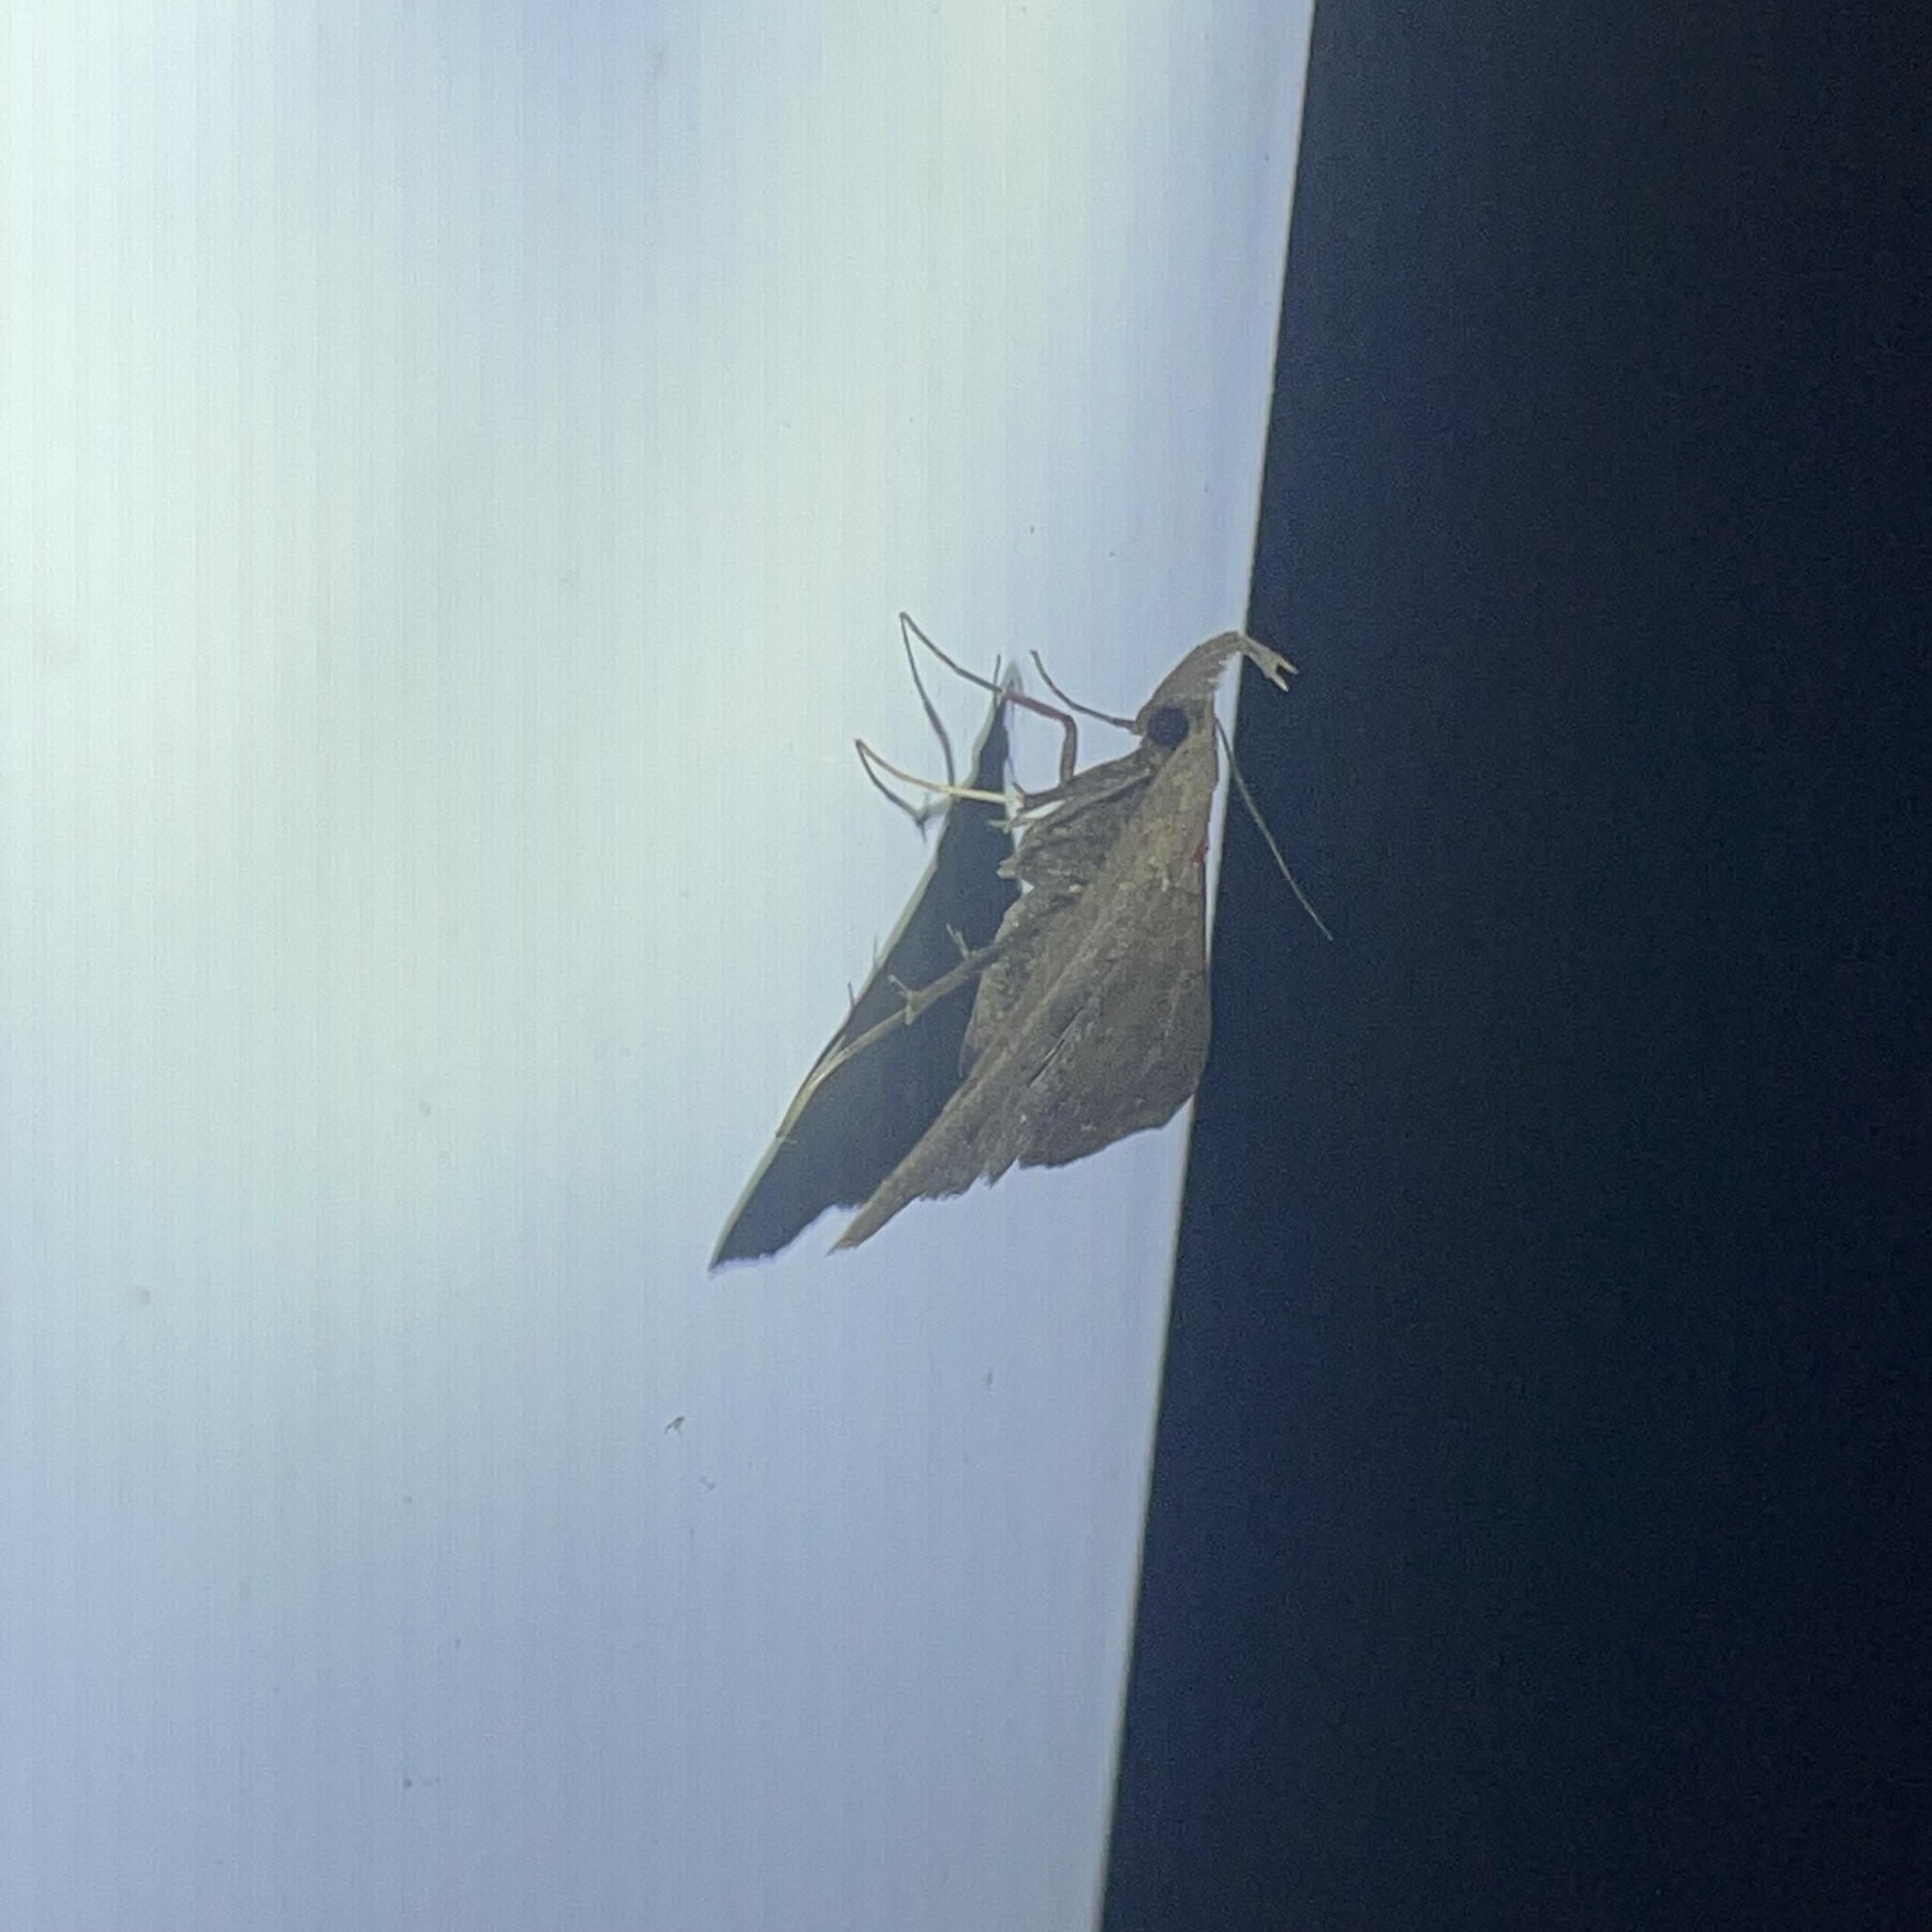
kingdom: Animalia
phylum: Arthropoda
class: Insecta
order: Lepidoptera
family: Erebidae
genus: Renia
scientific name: Renia bipunctata
